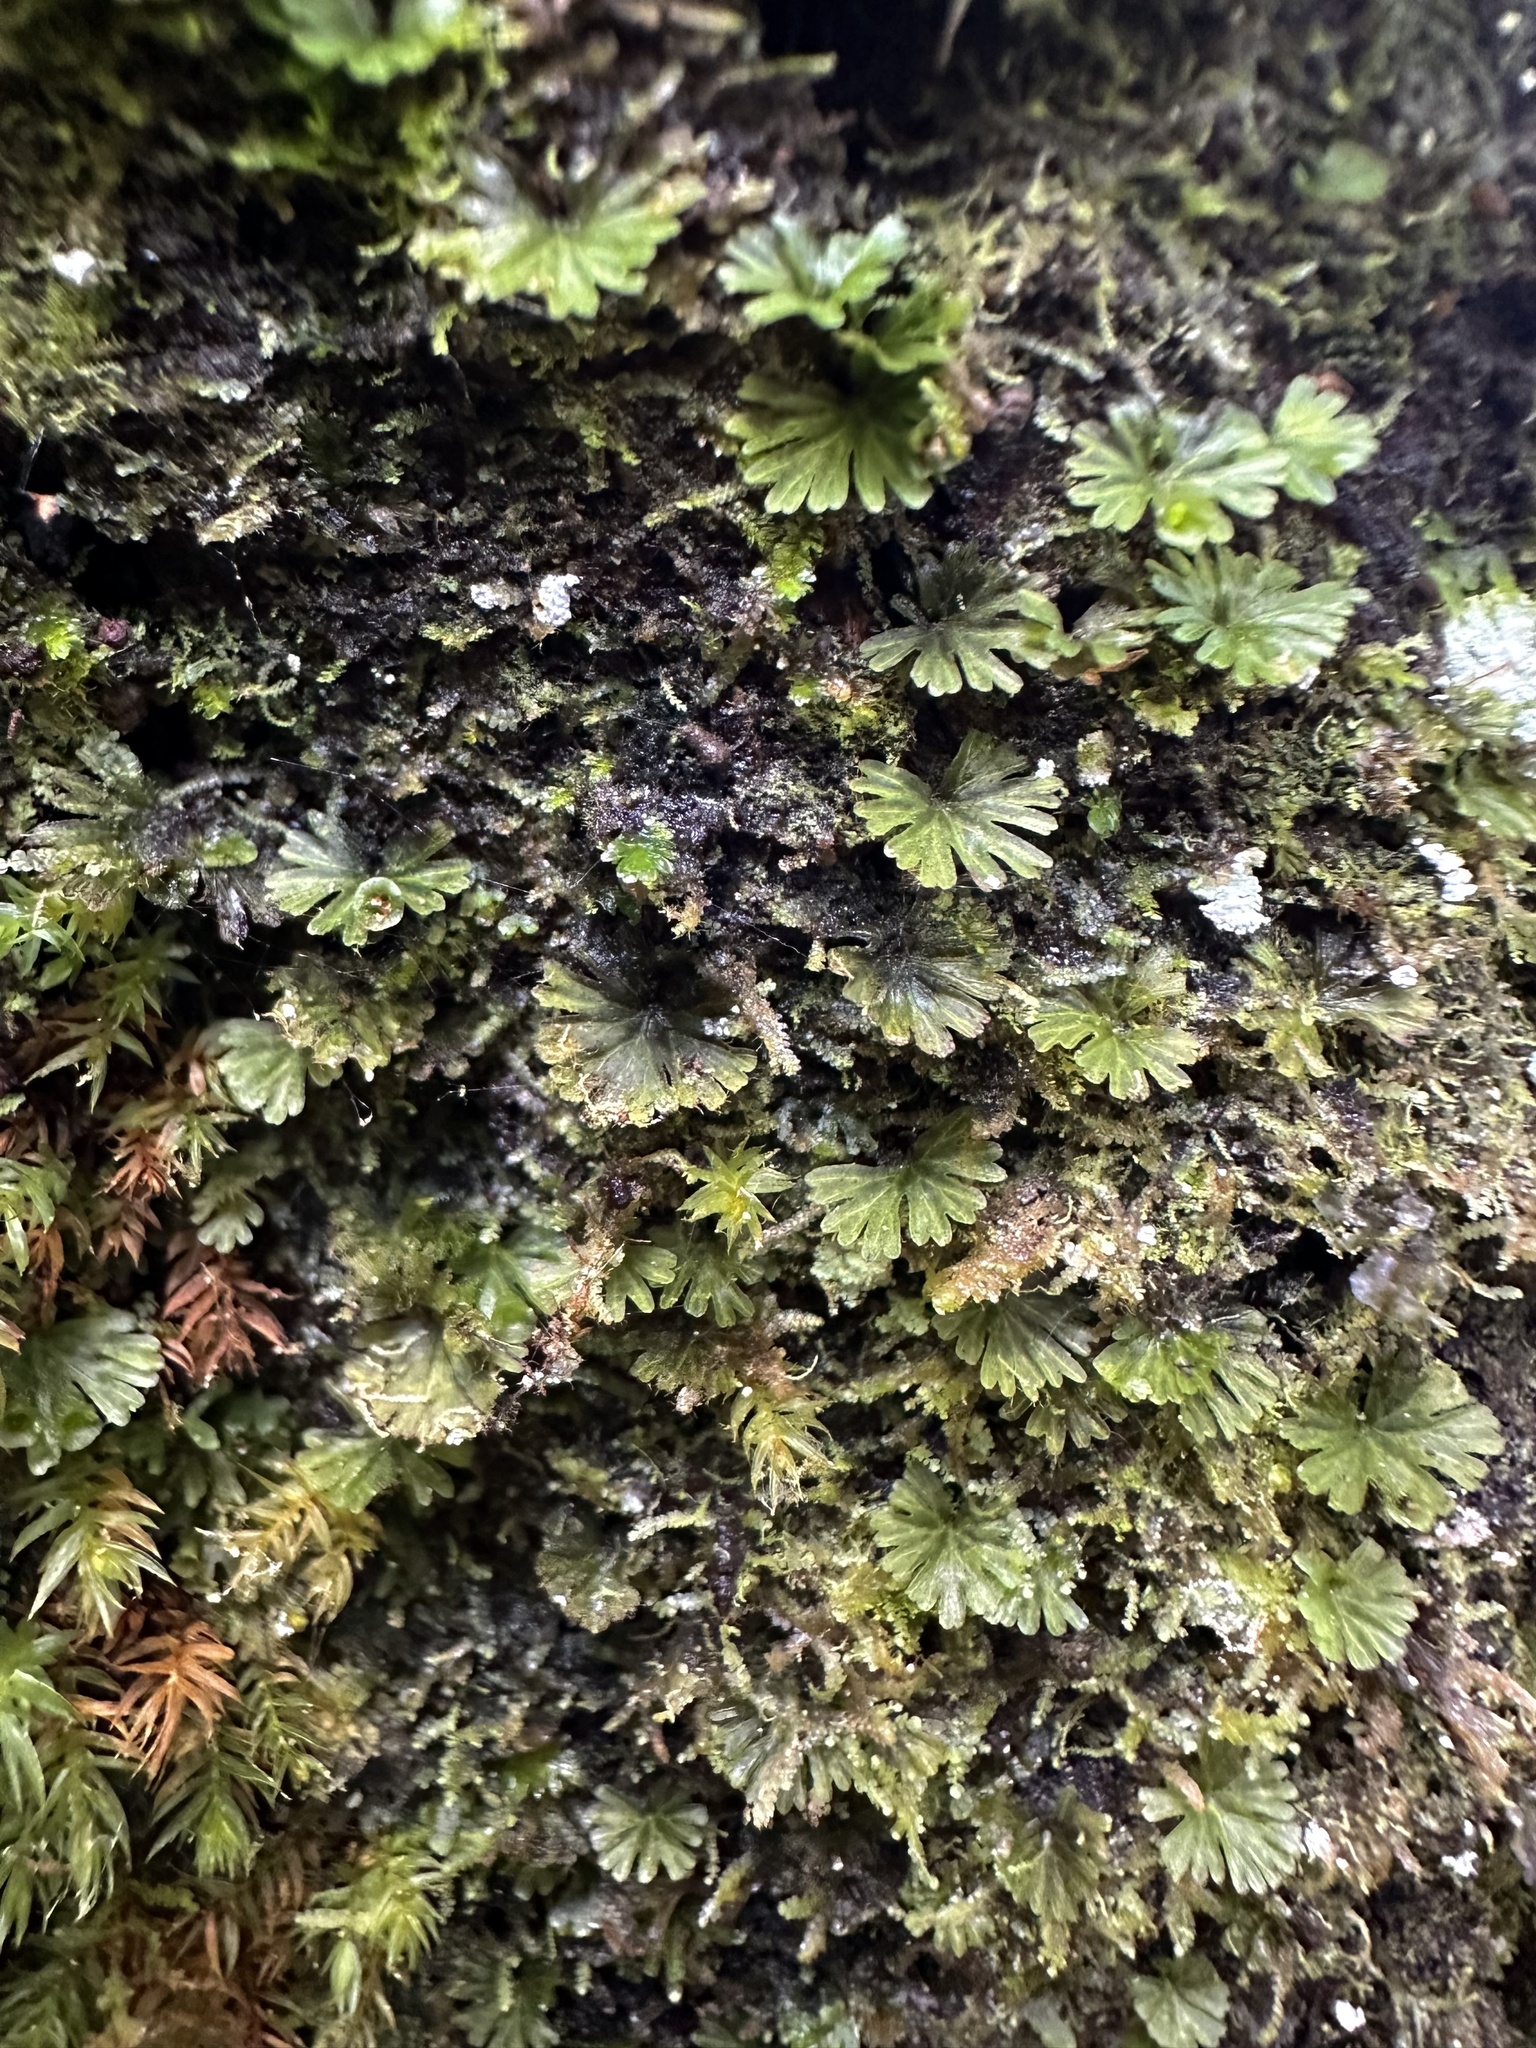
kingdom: Plantae
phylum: Tracheophyta
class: Polypodiopsida
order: Hymenophyllales
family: Hymenophyllaceae
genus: Crepidomanes
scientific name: Crepidomanes parvulum
